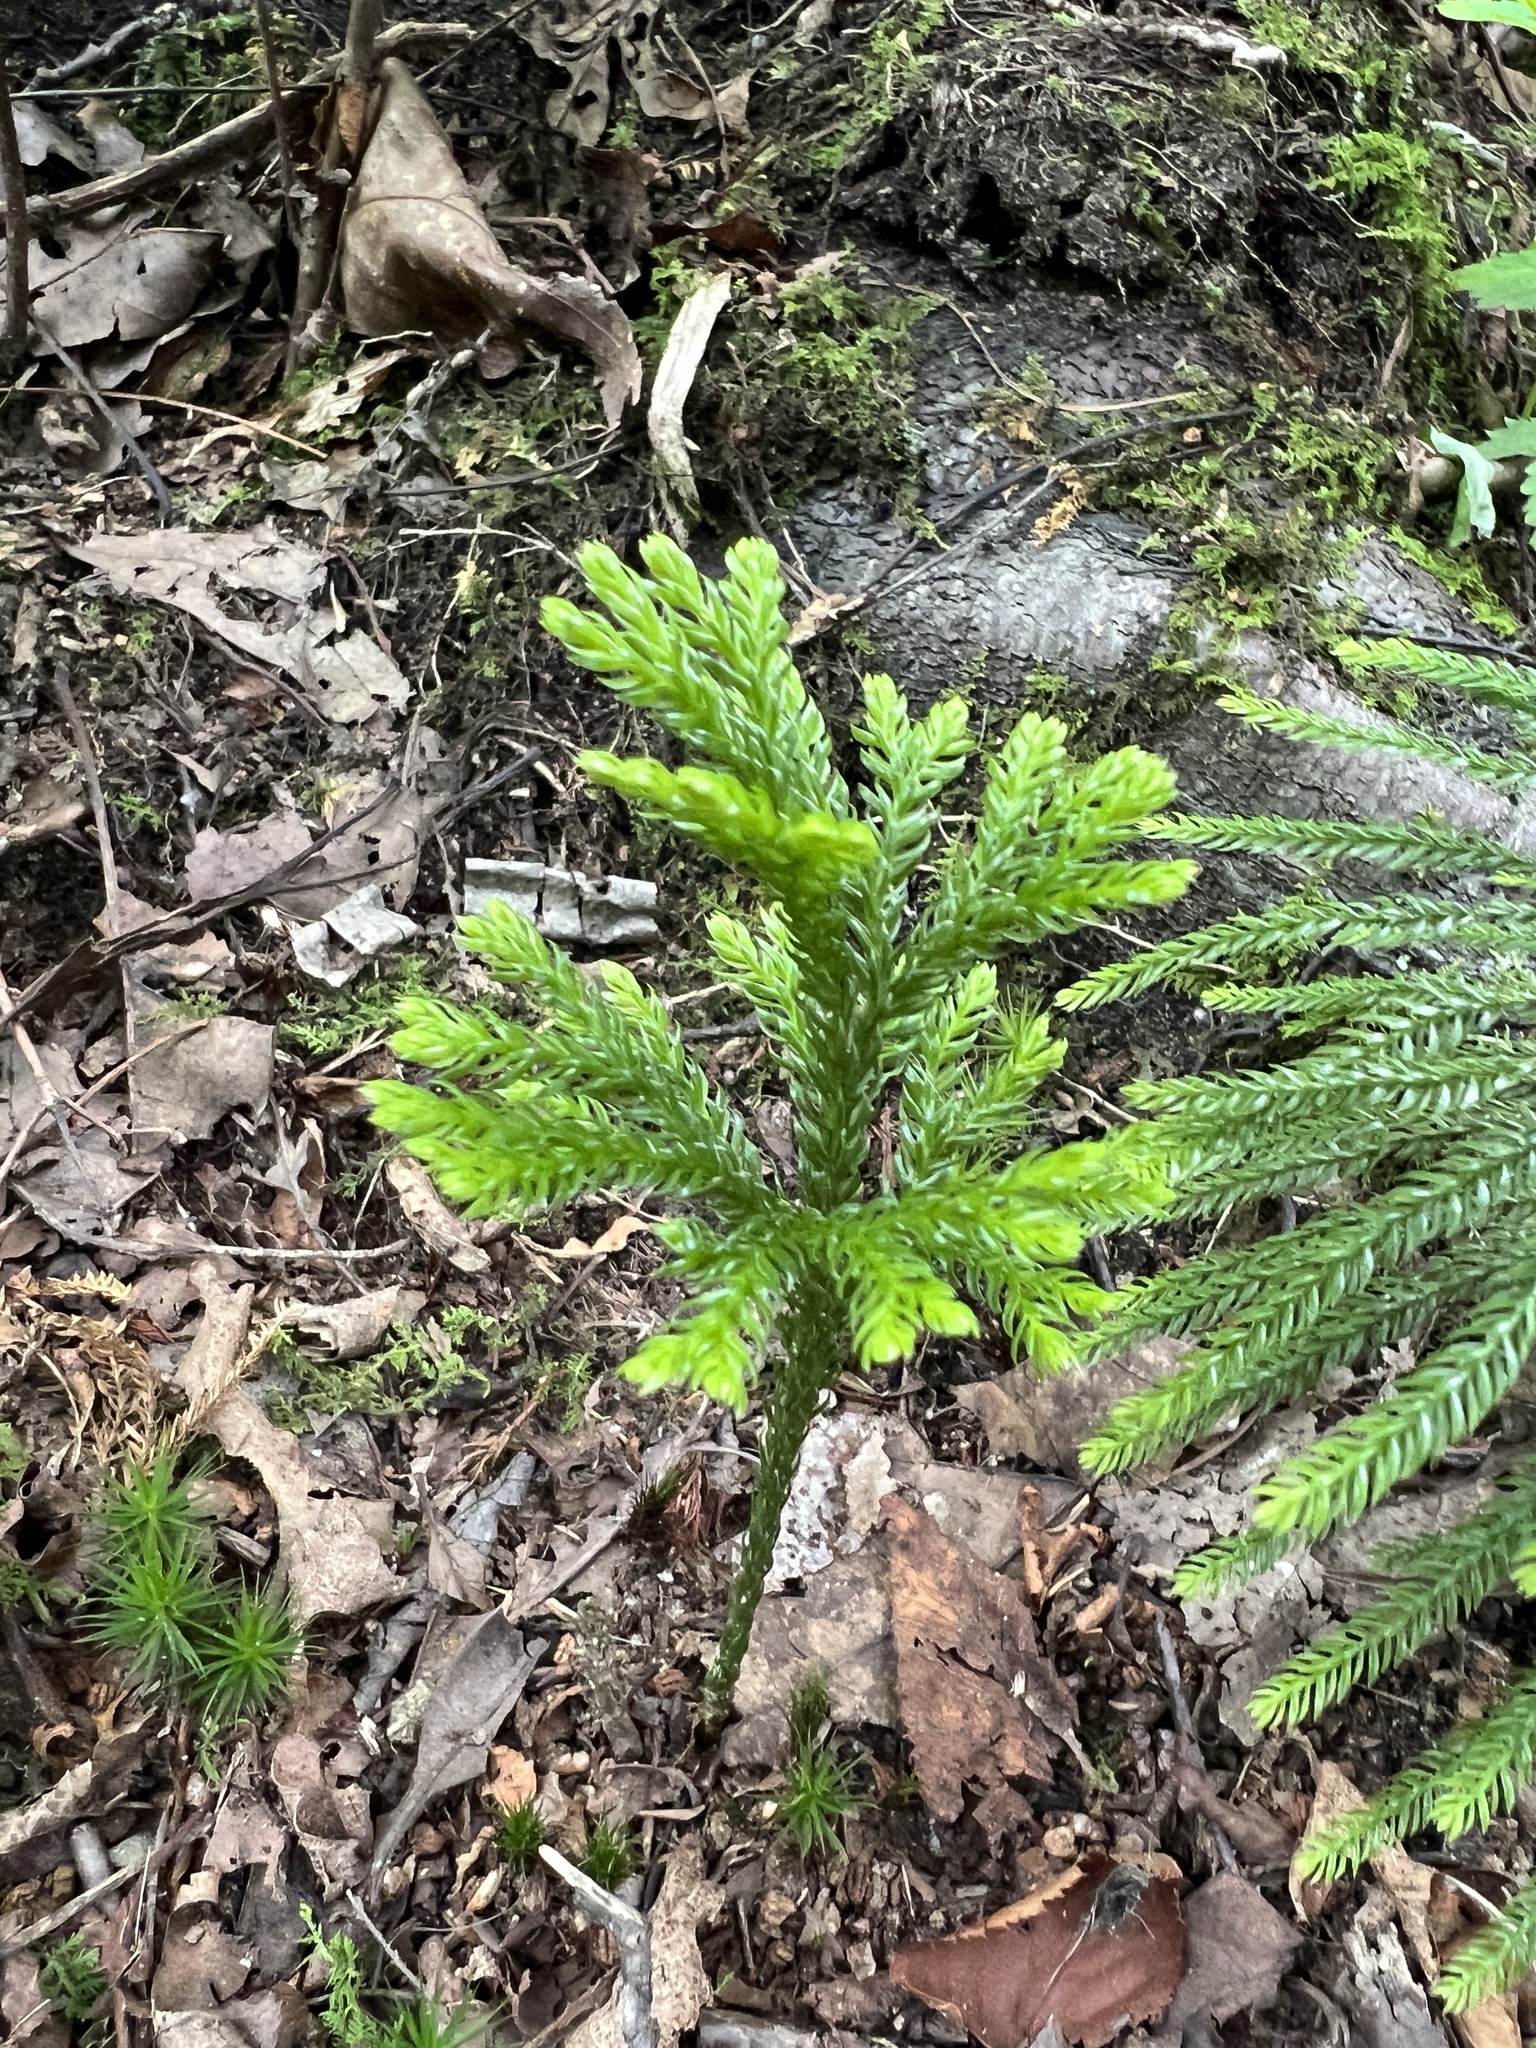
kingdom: Plantae
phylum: Tracheophyta
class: Lycopodiopsida
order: Lycopodiales
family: Lycopodiaceae
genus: Dendrolycopodium
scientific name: Dendrolycopodium obscurum
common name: Common ground-pine
